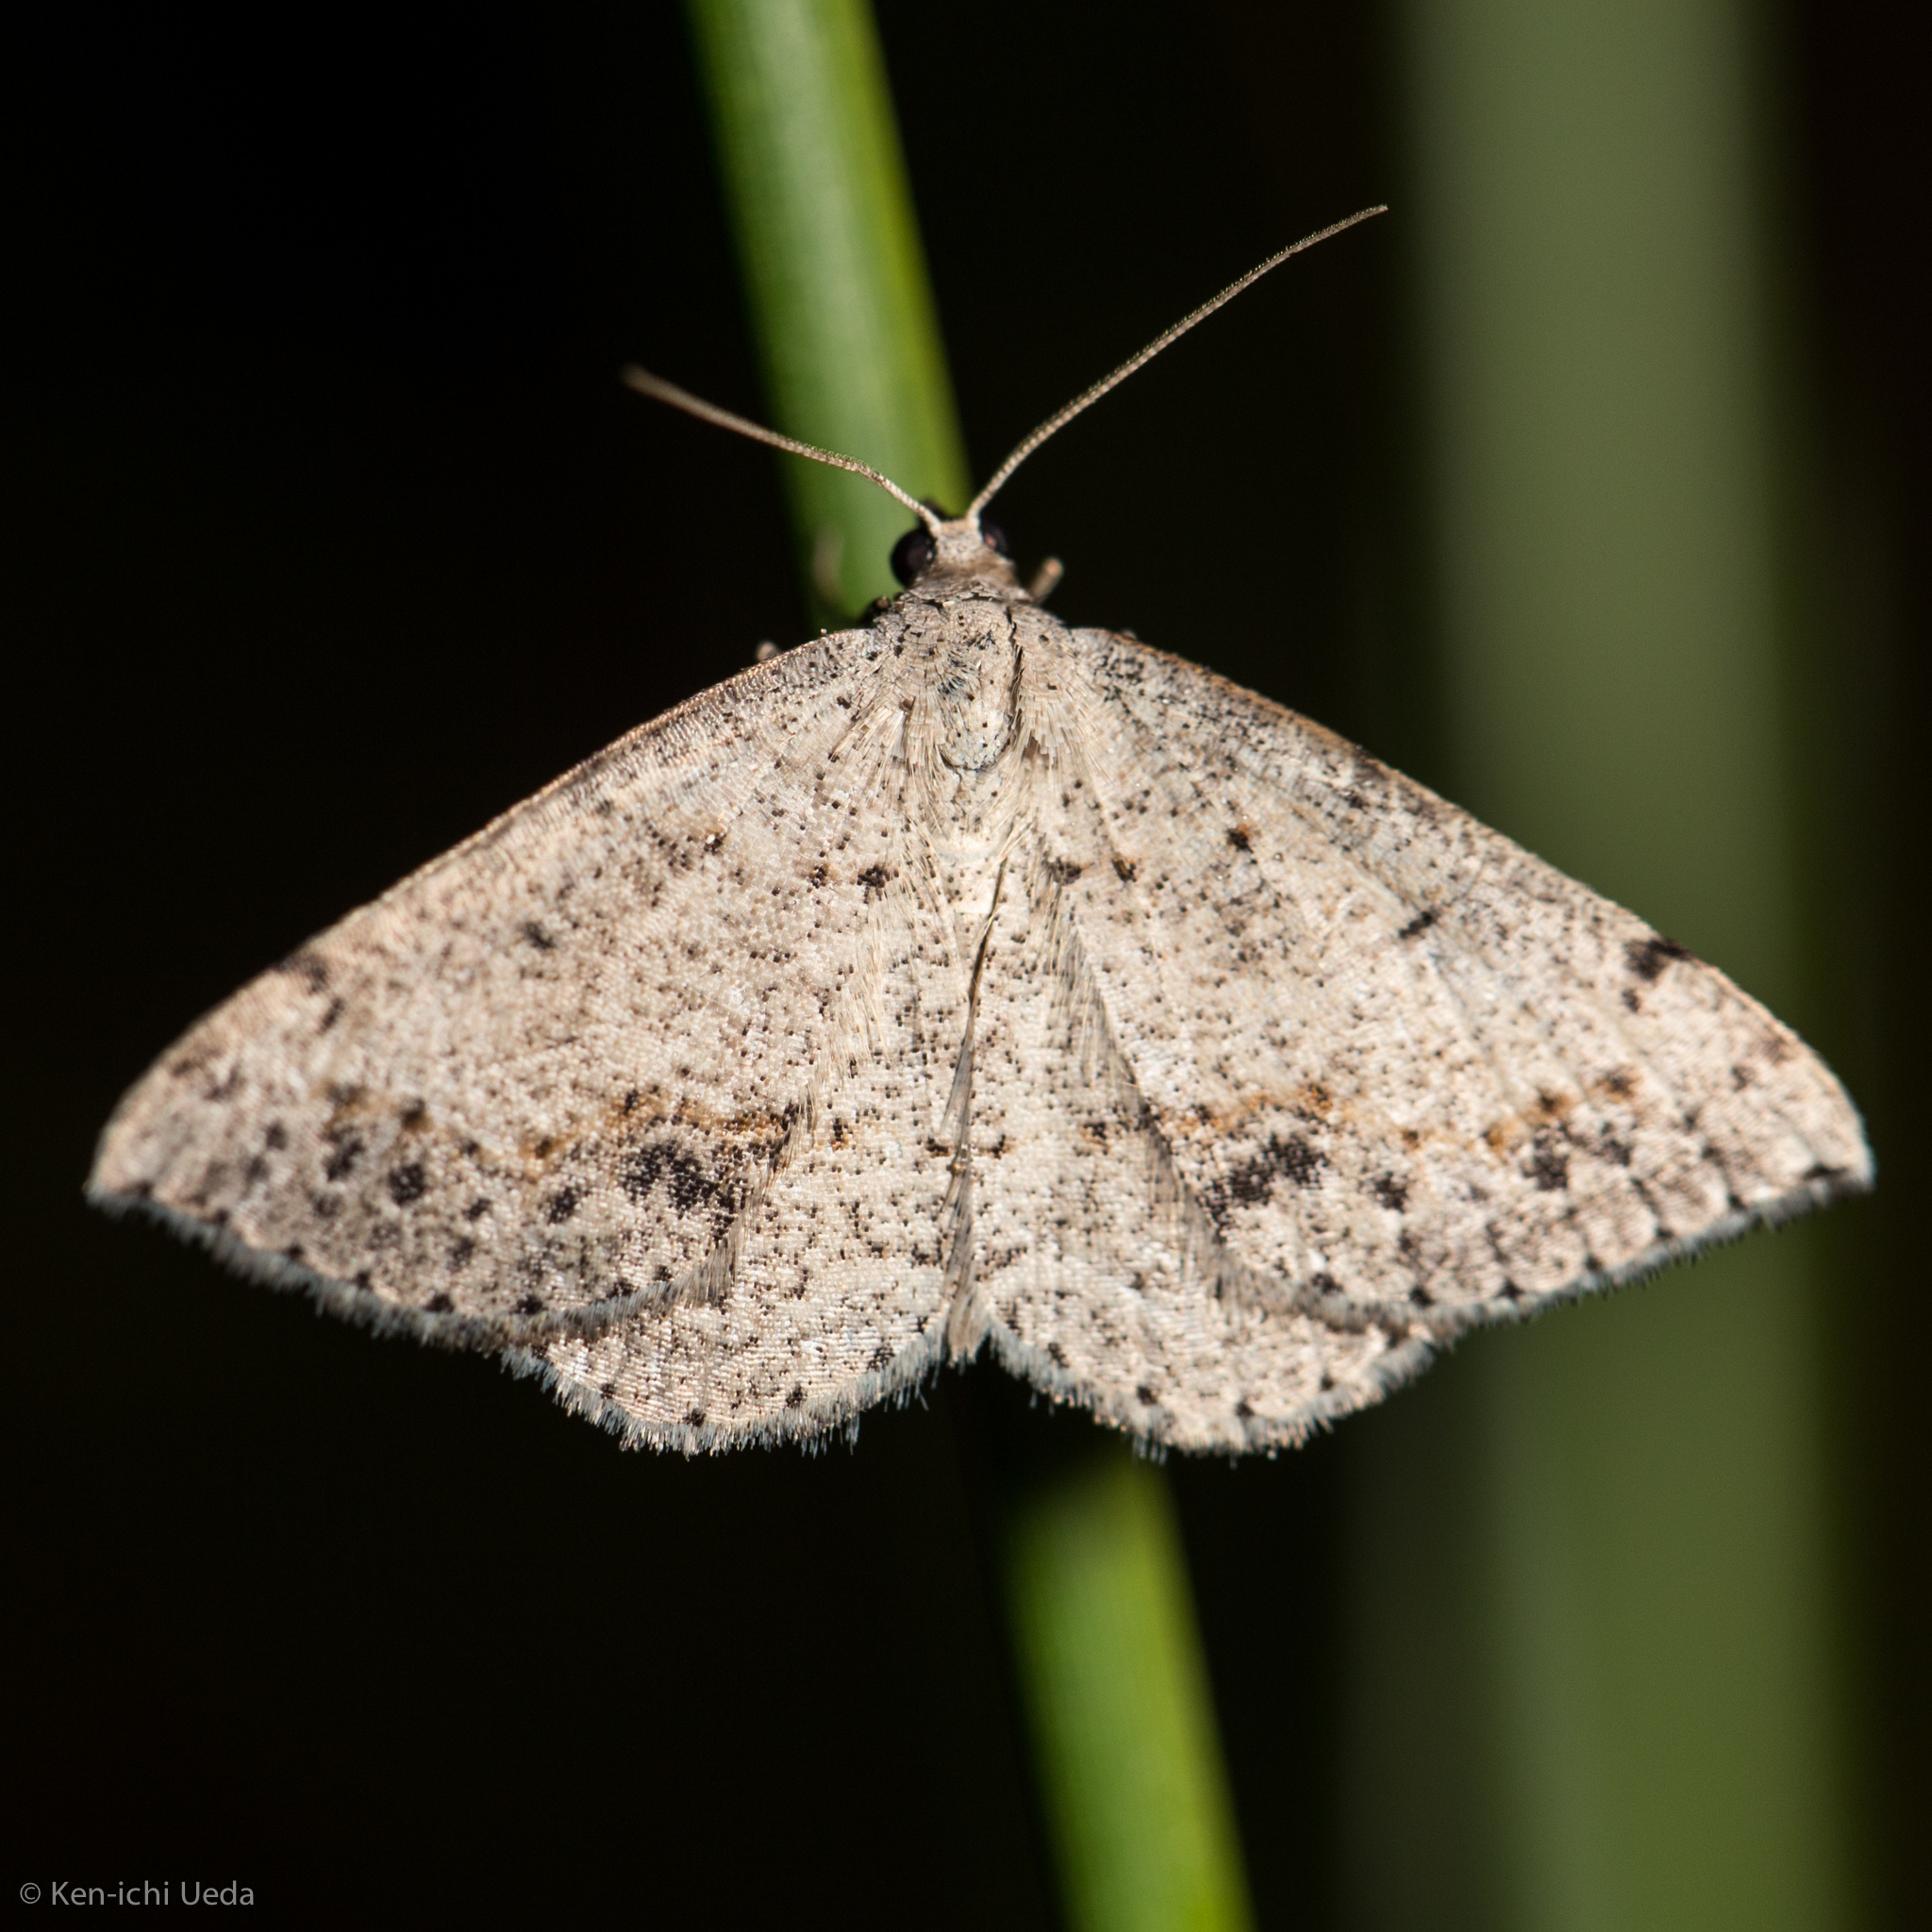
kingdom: Animalia
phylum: Arthropoda
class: Insecta
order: Lepidoptera
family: Geometridae
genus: Taxeotis
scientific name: Taxeotis intextata
